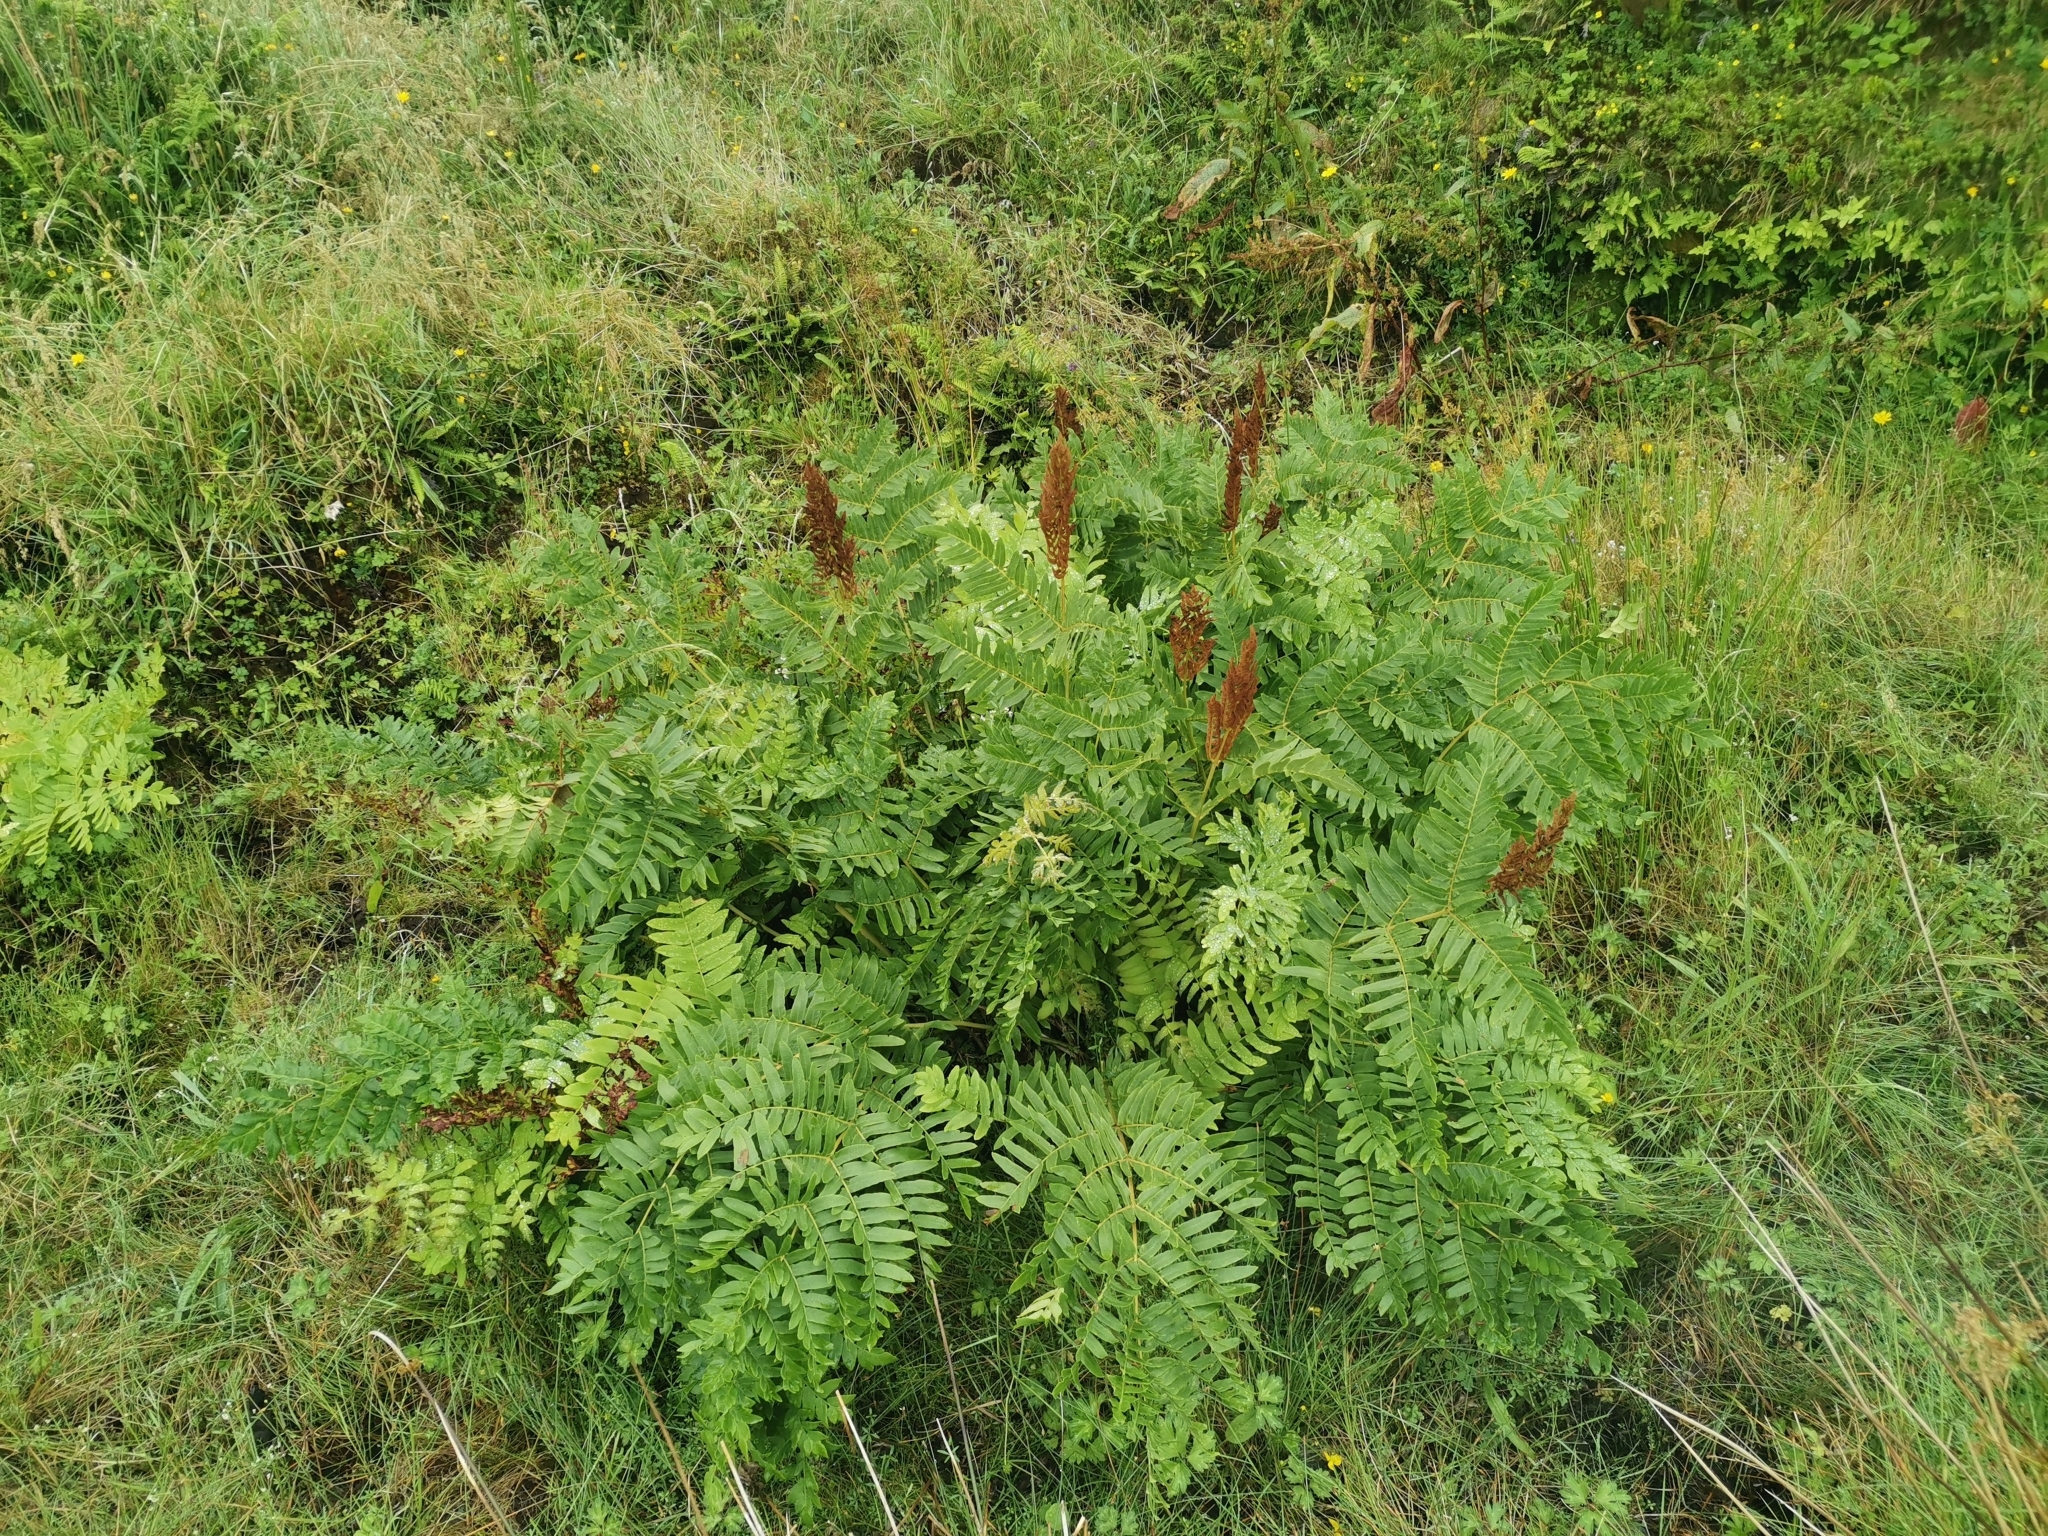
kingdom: Plantae
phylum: Tracheophyta
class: Polypodiopsida
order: Osmundales
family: Osmundaceae
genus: Osmunda
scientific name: Osmunda regalis
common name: Royal fern
